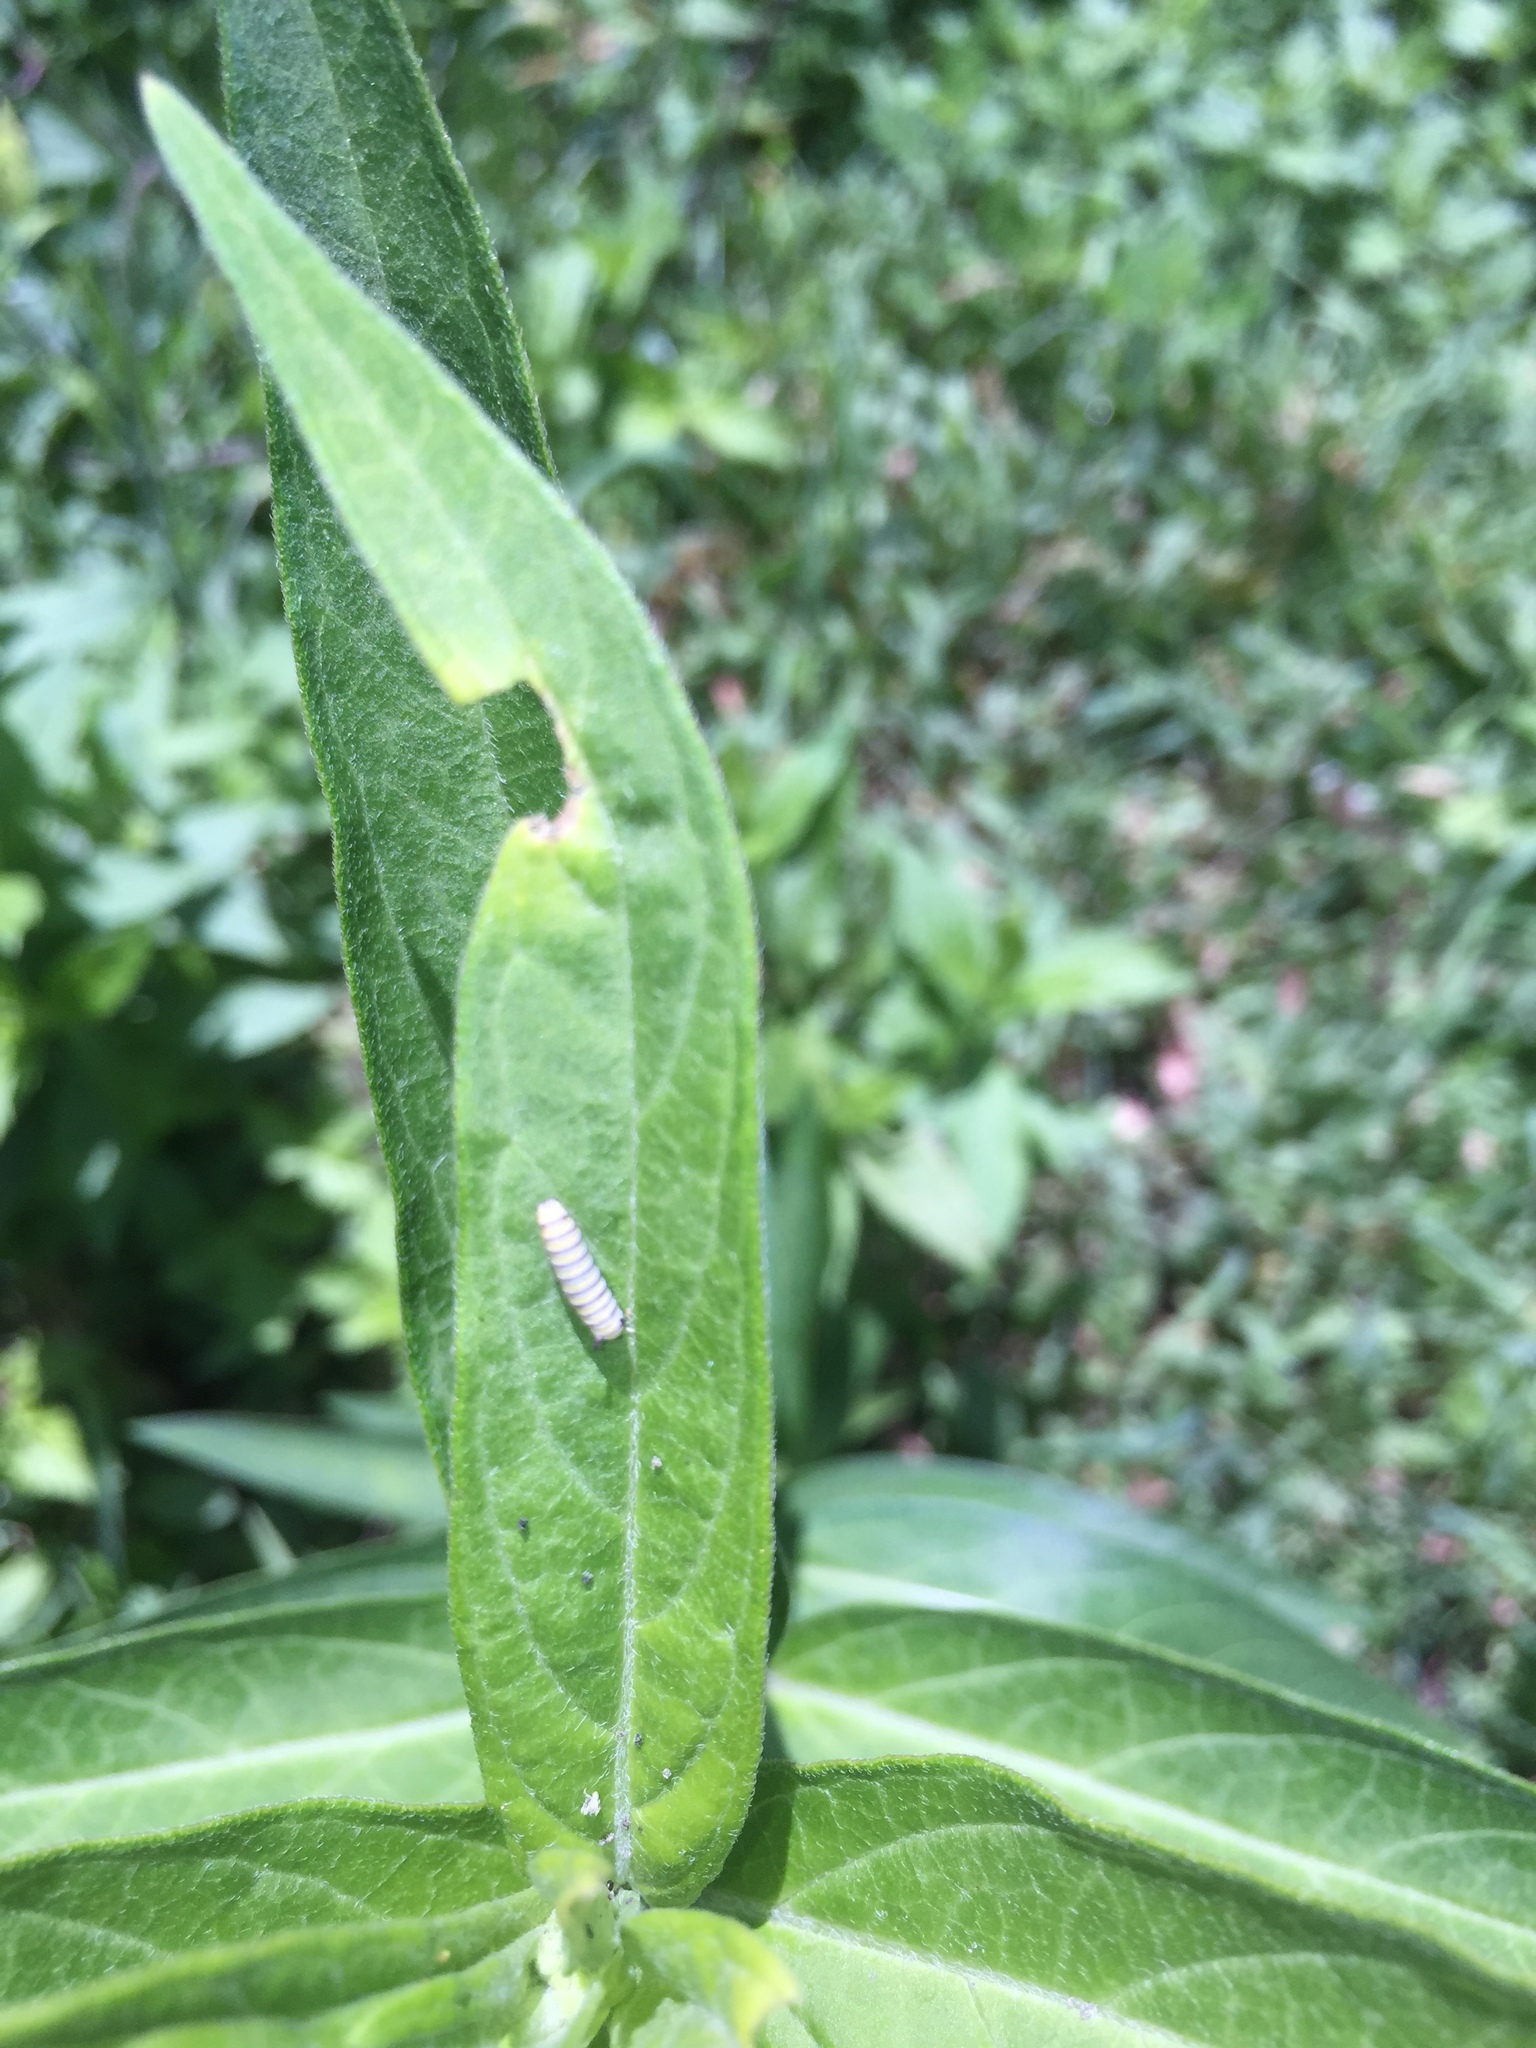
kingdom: Animalia
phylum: Arthropoda
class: Insecta
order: Lepidoptera
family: Nymphalidae
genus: Danaus
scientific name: Danaus plexippus
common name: Monarch
